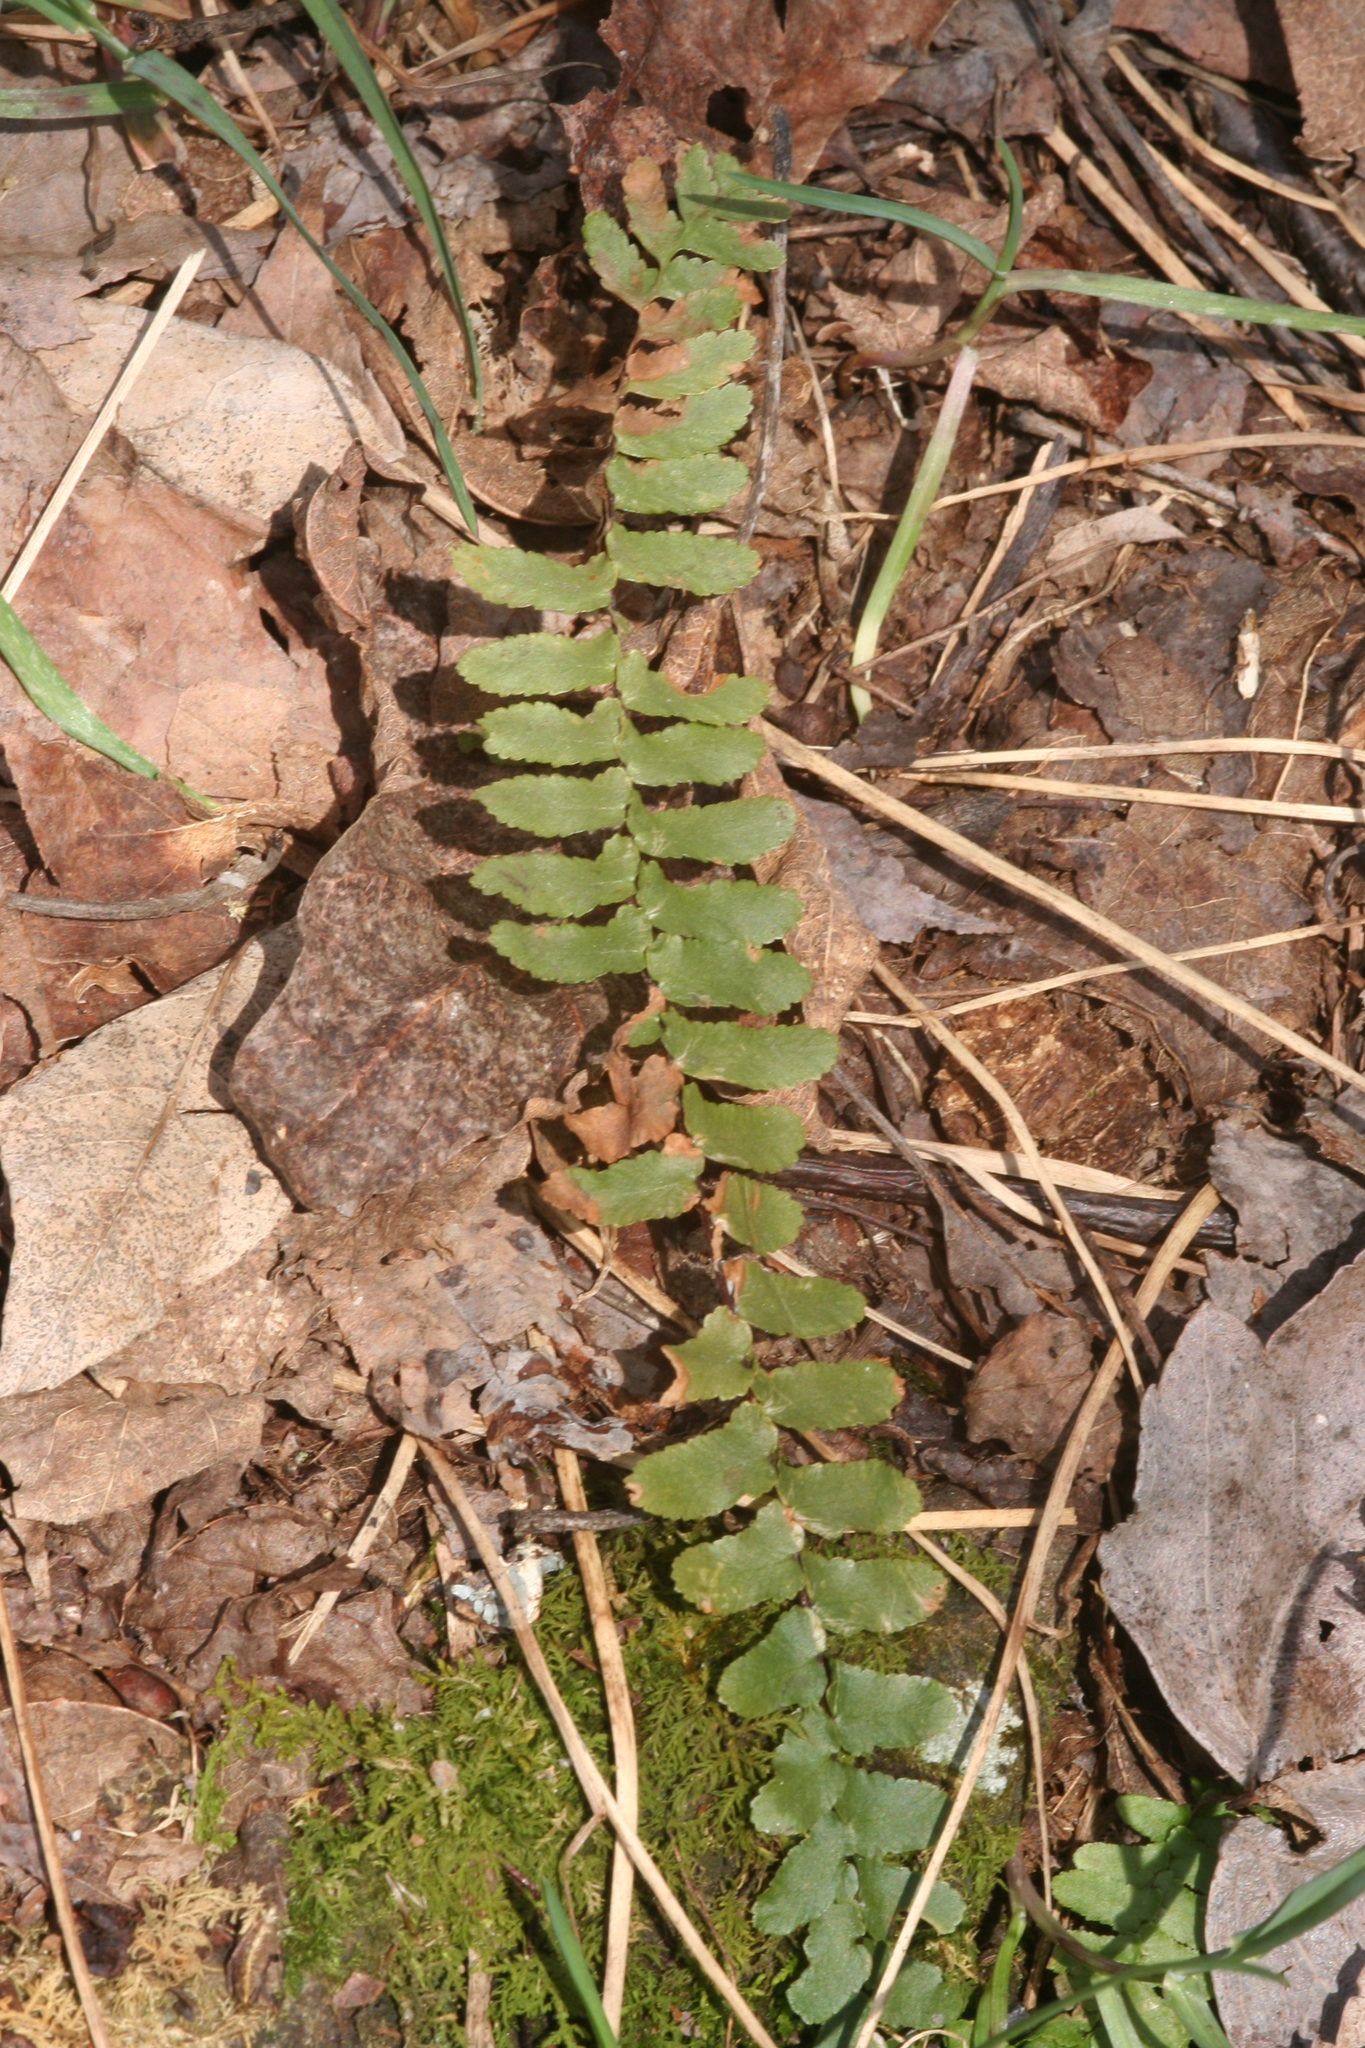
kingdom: Plantae
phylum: Tracheophyta
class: Polypodiopsida
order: Polypodiales
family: Aspleniaceae
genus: Asplenium
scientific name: Asplenium platyneuron
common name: Ebony spleenwort
